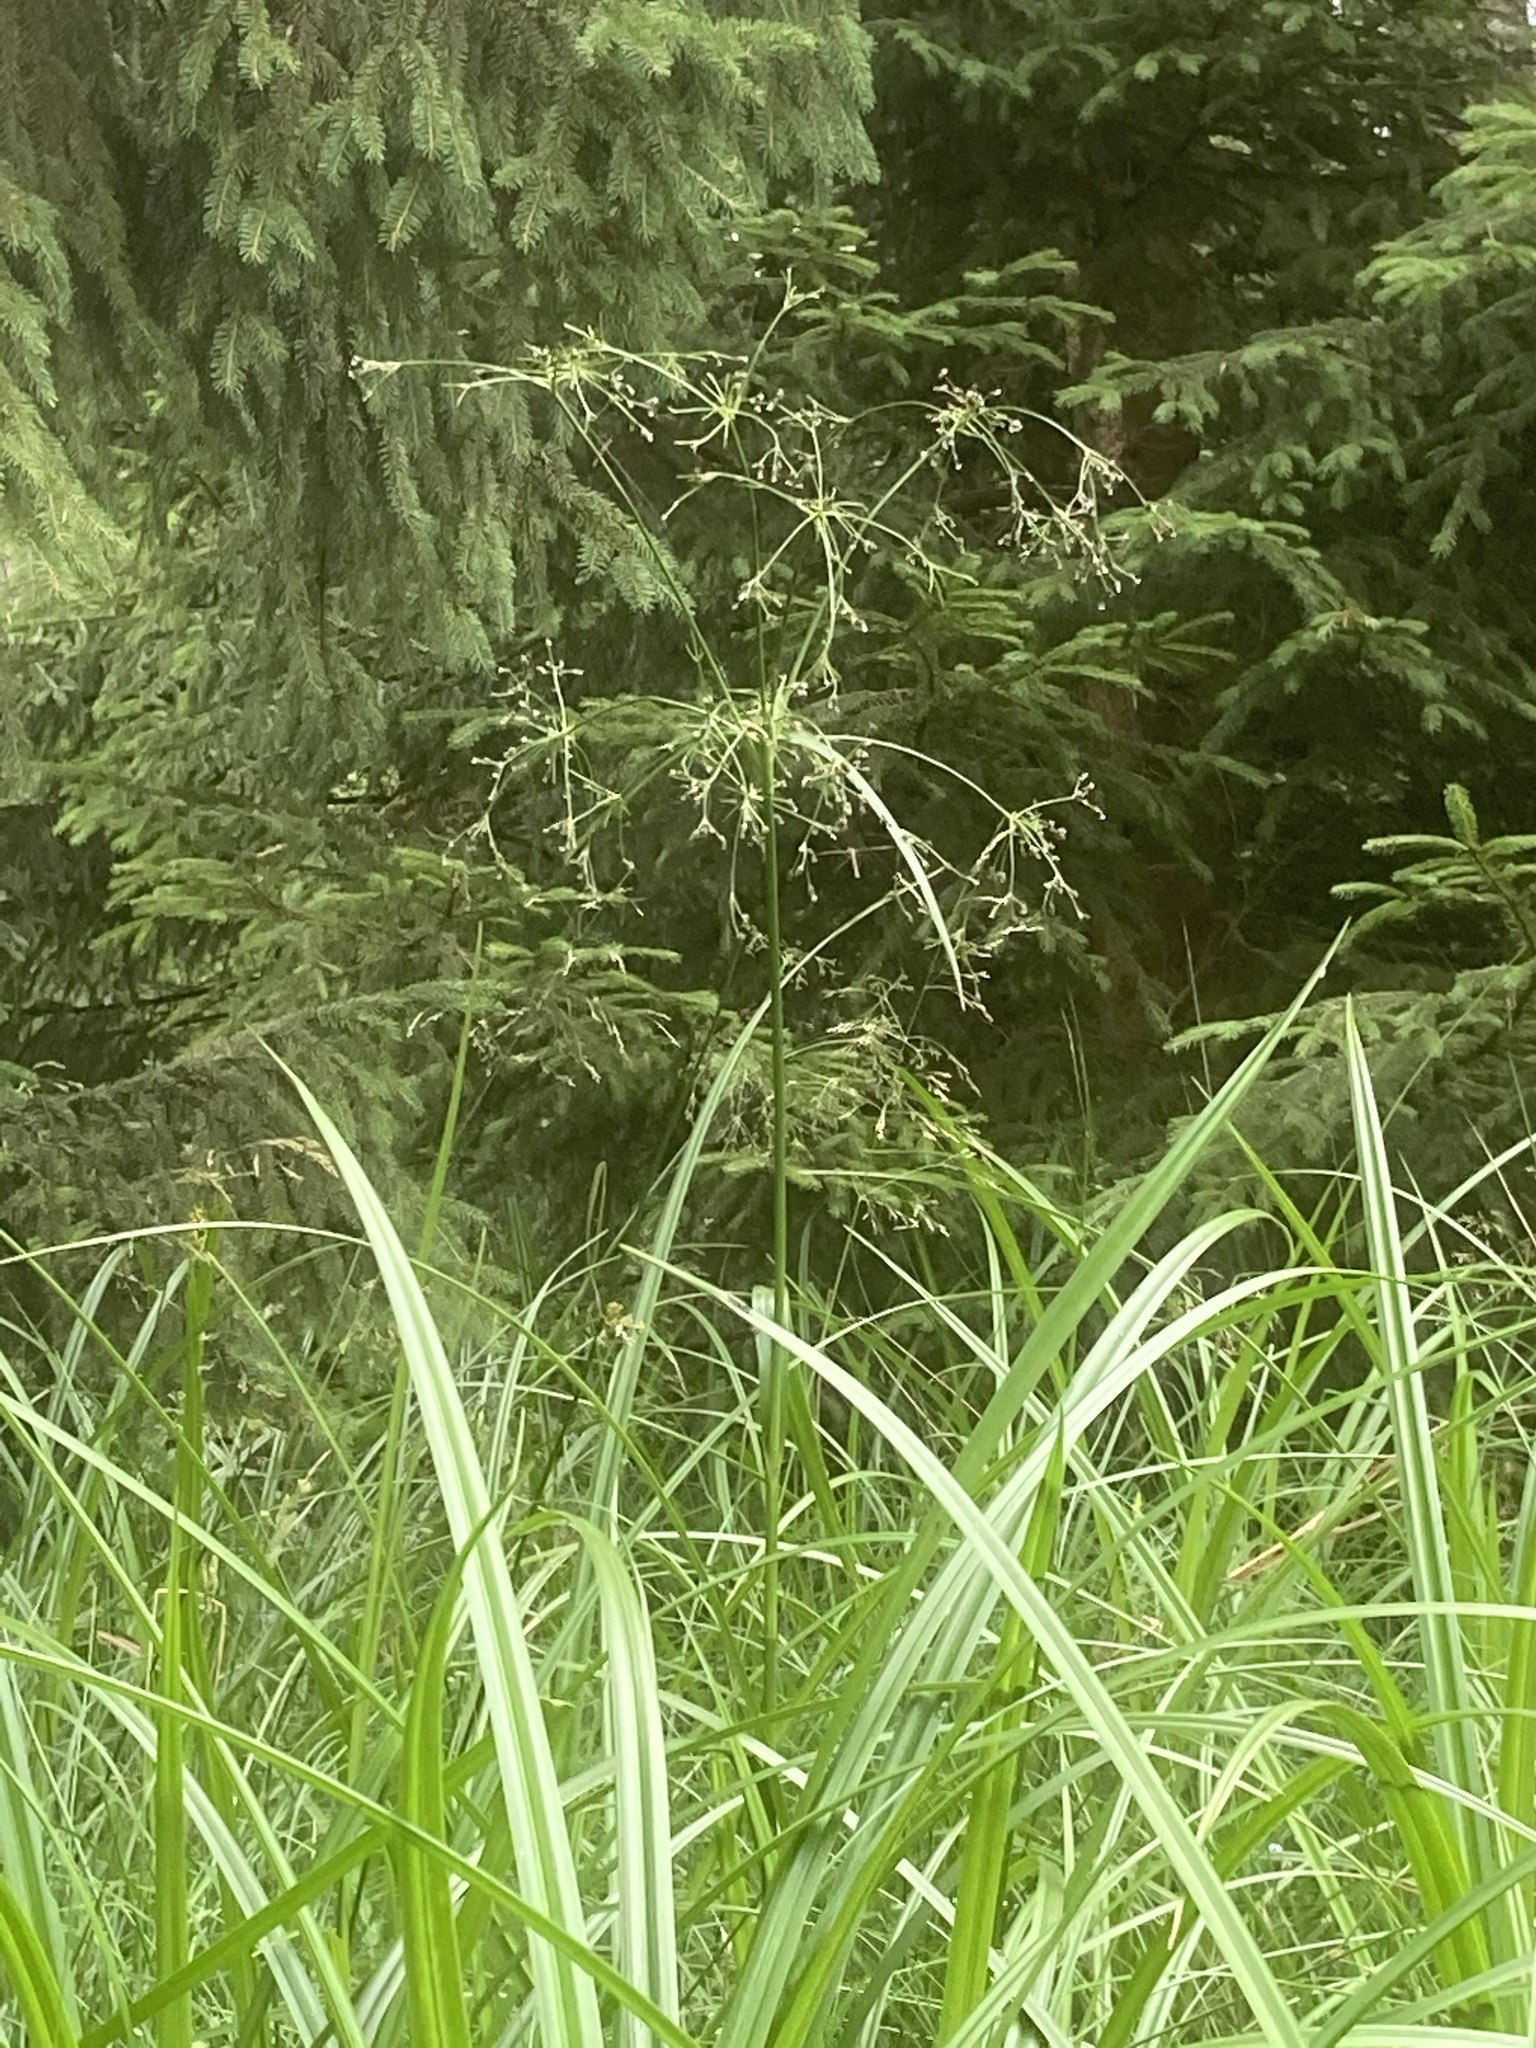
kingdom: Plantae
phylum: Tracheophyta
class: Liliopsida
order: Poales
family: Cyperaceae
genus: Scirpus
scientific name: Scirpus sylvaticus
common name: Wood club-rush
